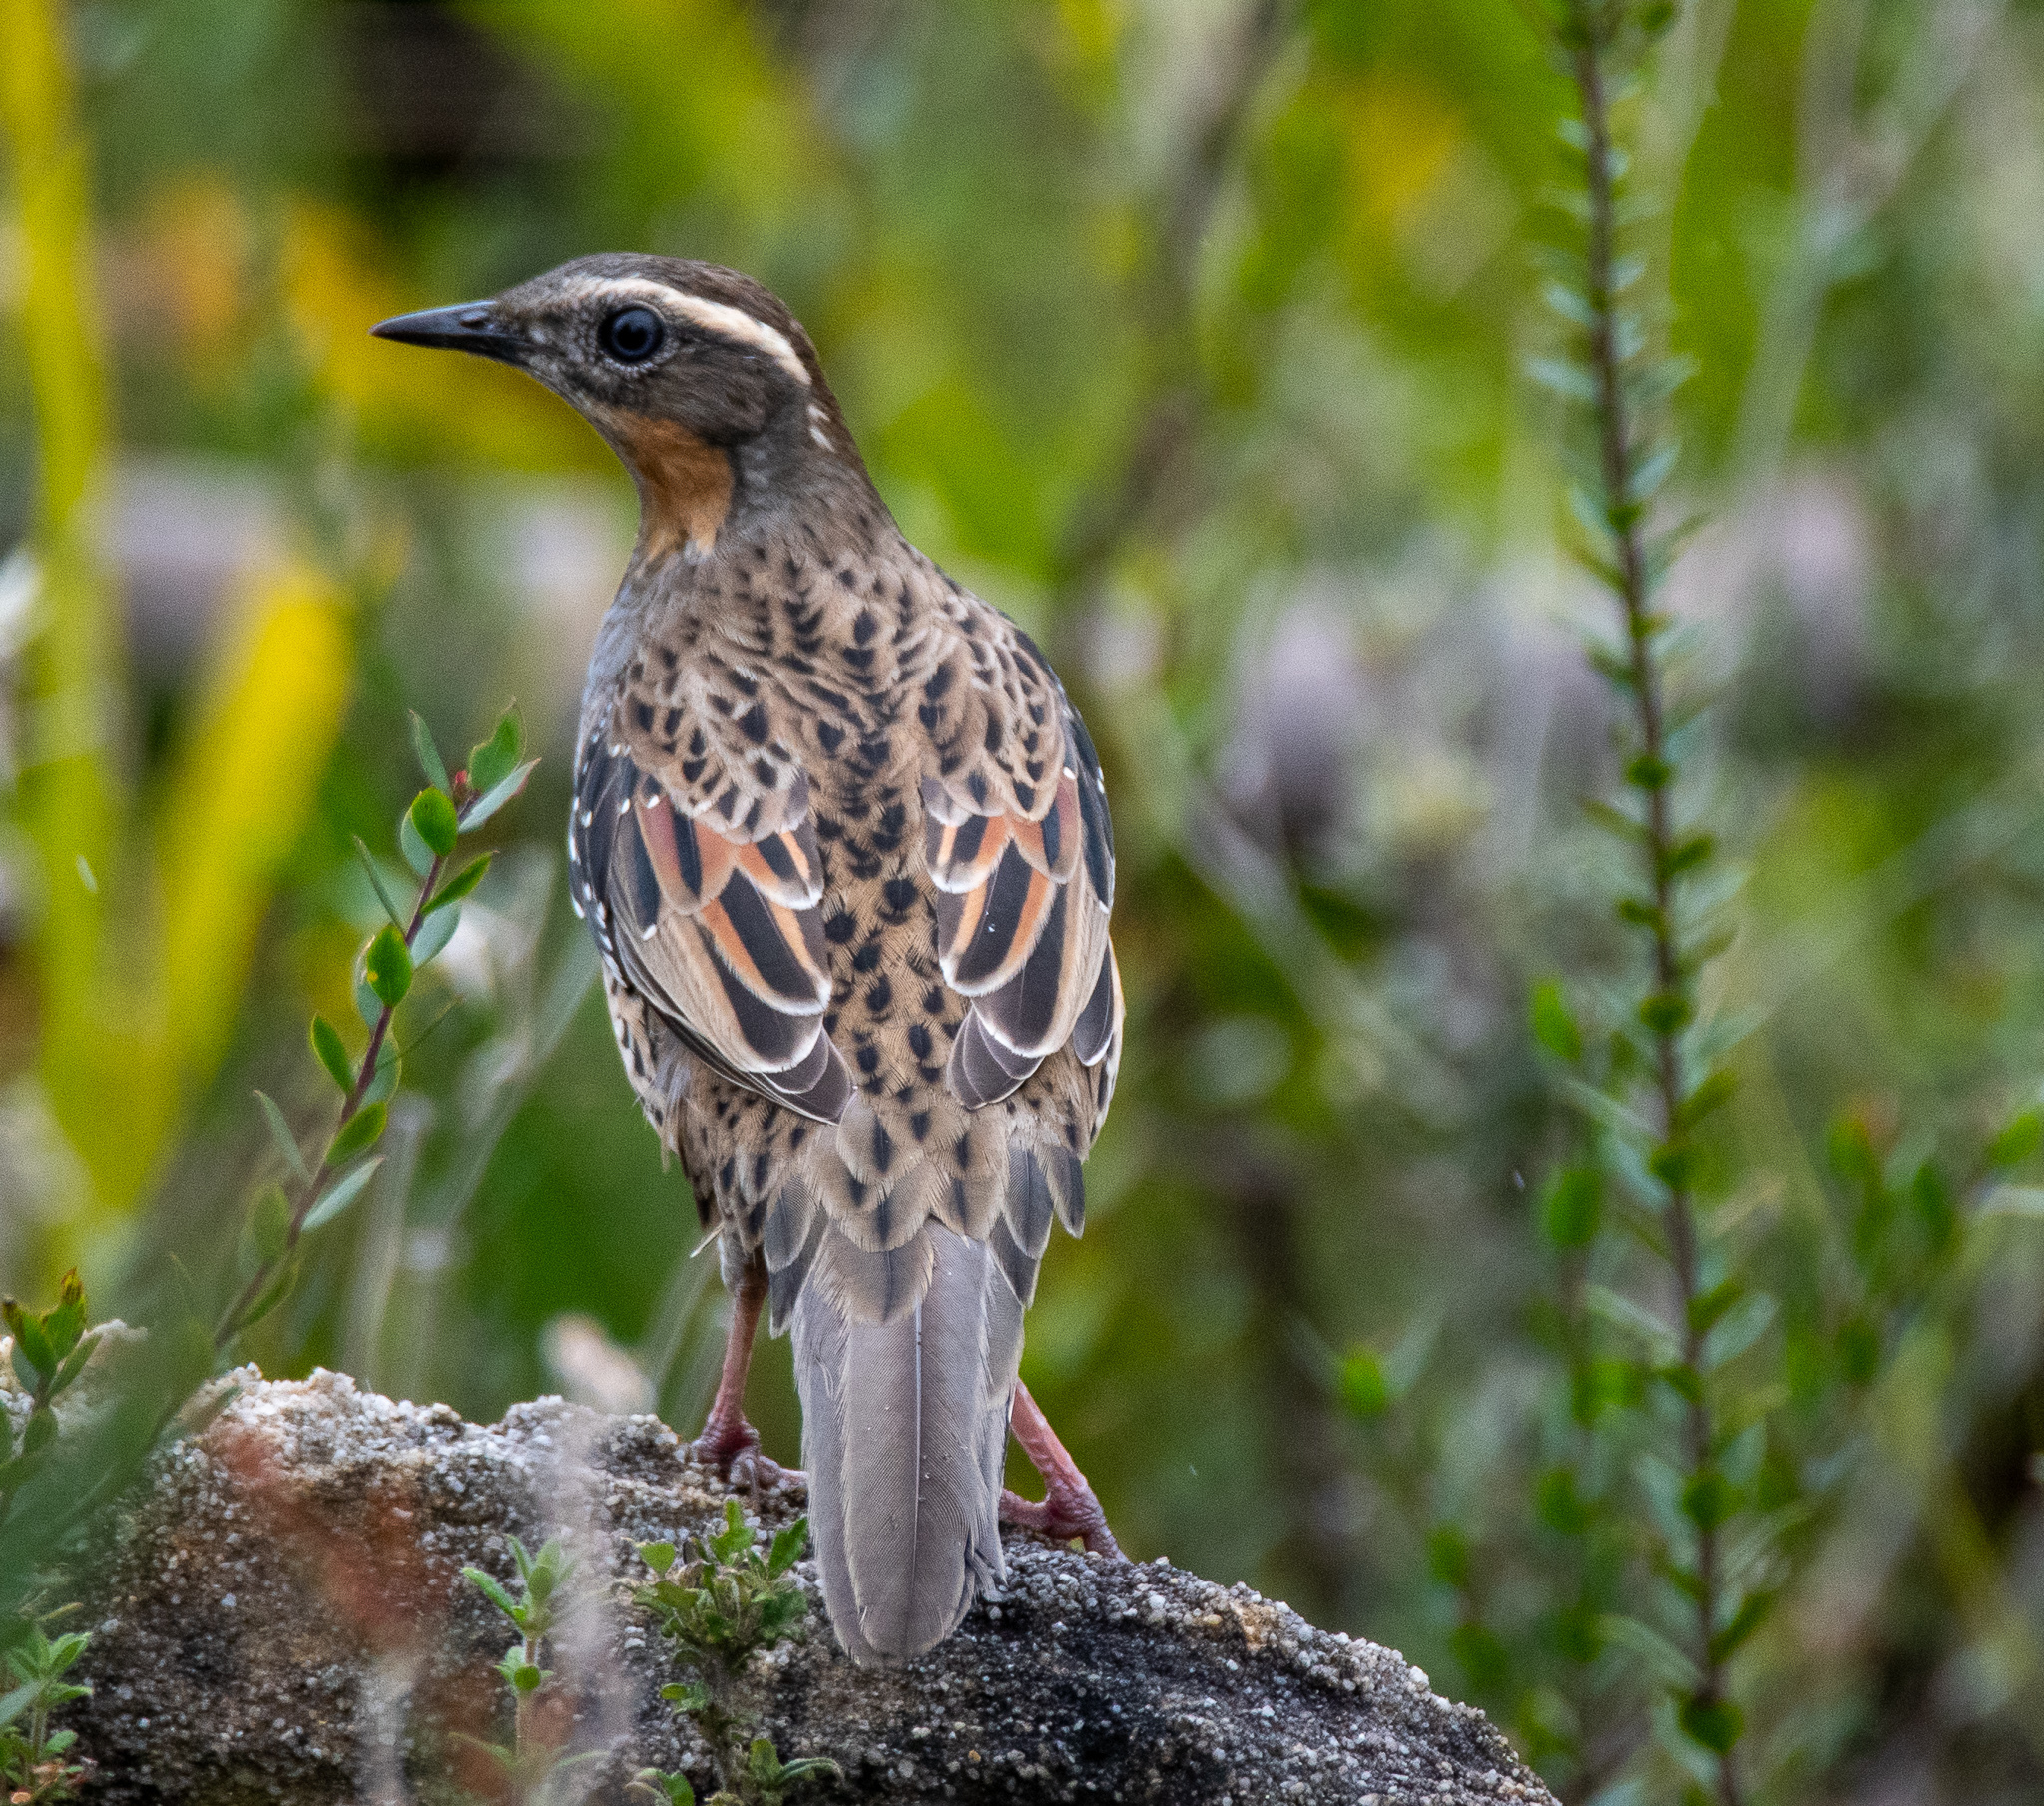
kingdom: Animalia
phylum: Chordata
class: Aves
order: Passeriformes
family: Psophodidae
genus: Cinclosoma
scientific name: Cinclosoma punctatum
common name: Spotted quail-thrush
